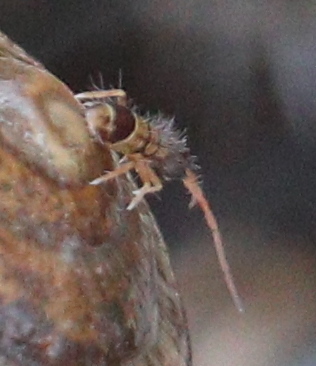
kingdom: Animalia
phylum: Arthropoda
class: Collembola
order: Entomobryomorpha
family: Orchesellidae
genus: Orchesella
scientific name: Orchesella spectabilis
